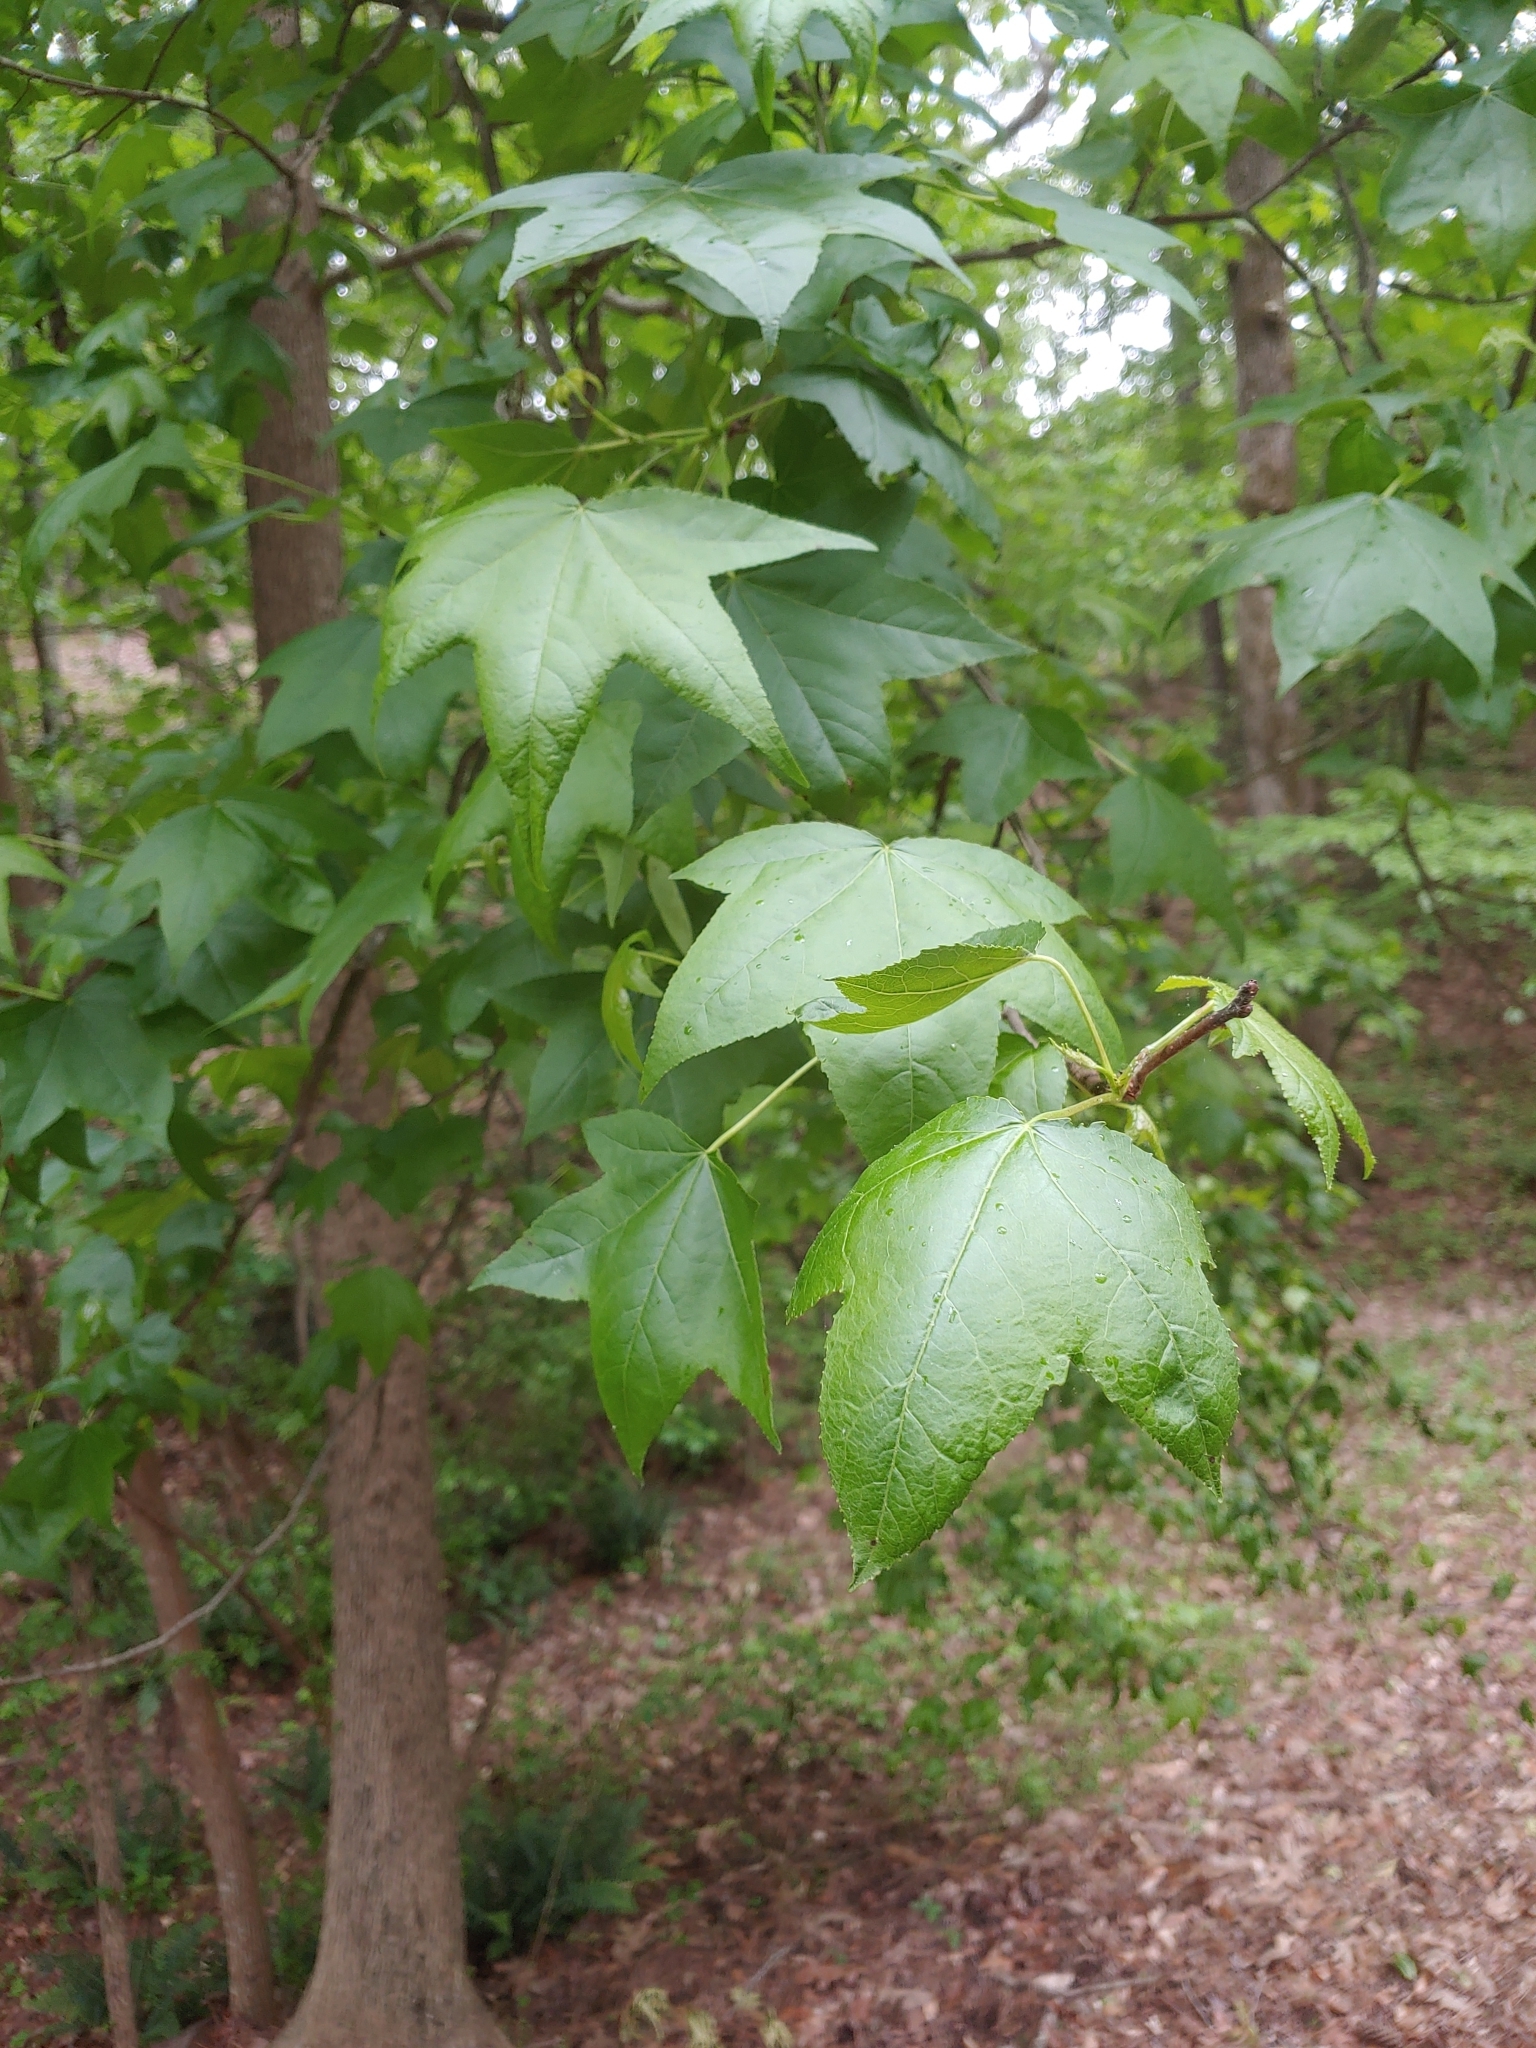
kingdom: Plantae
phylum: Tracheophyta
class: Magnoliopsida
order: Saxifragales
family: Altingiaceae
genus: Liquidambar
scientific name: Liquidambar styraciflua
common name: Sweet gum
